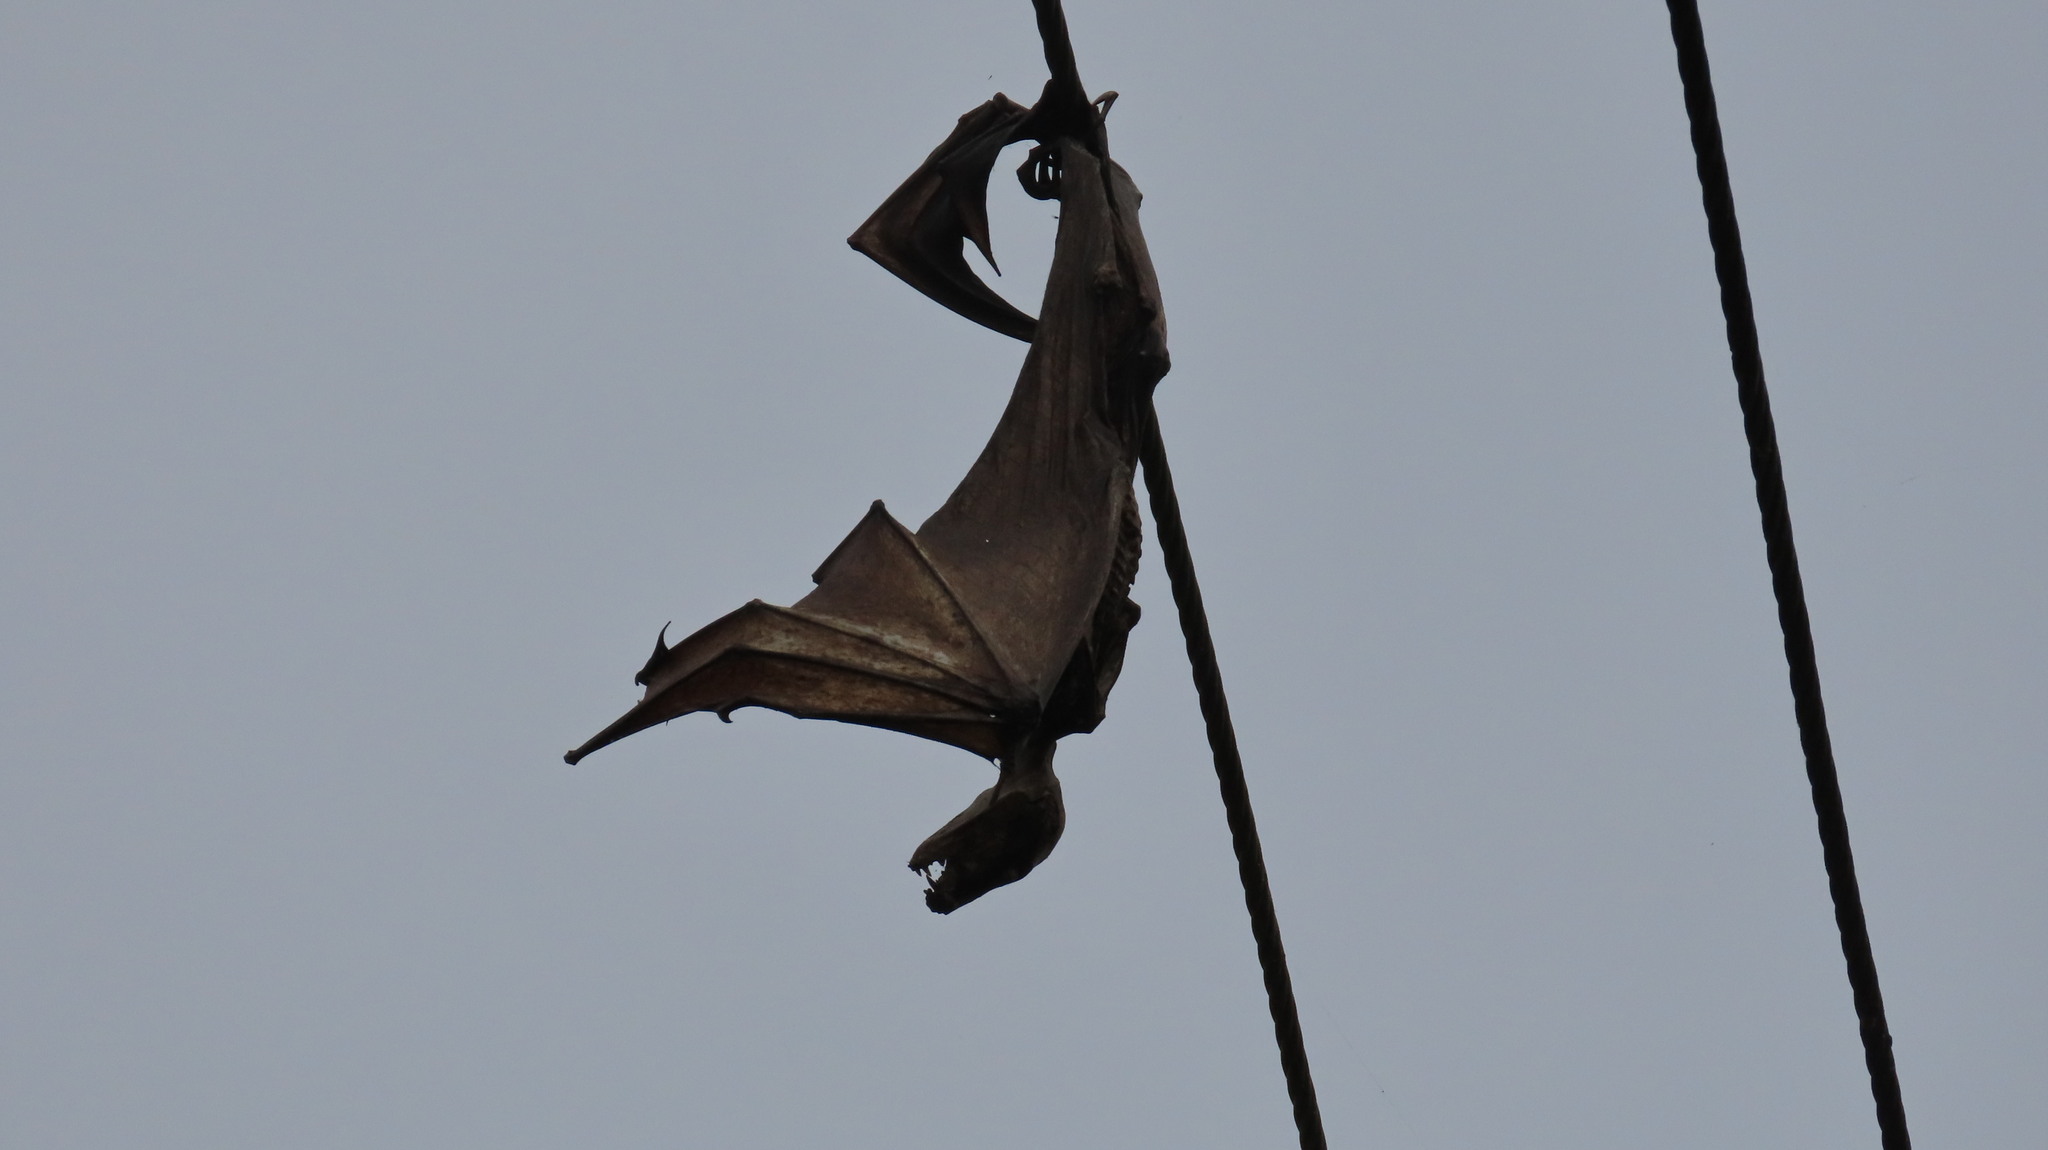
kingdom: Animalia
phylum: Chordata
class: Mammalia
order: Chiroptera
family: Pteropodidae
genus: Pteropus
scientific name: Pteropus vampyrus
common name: Large flying fox
